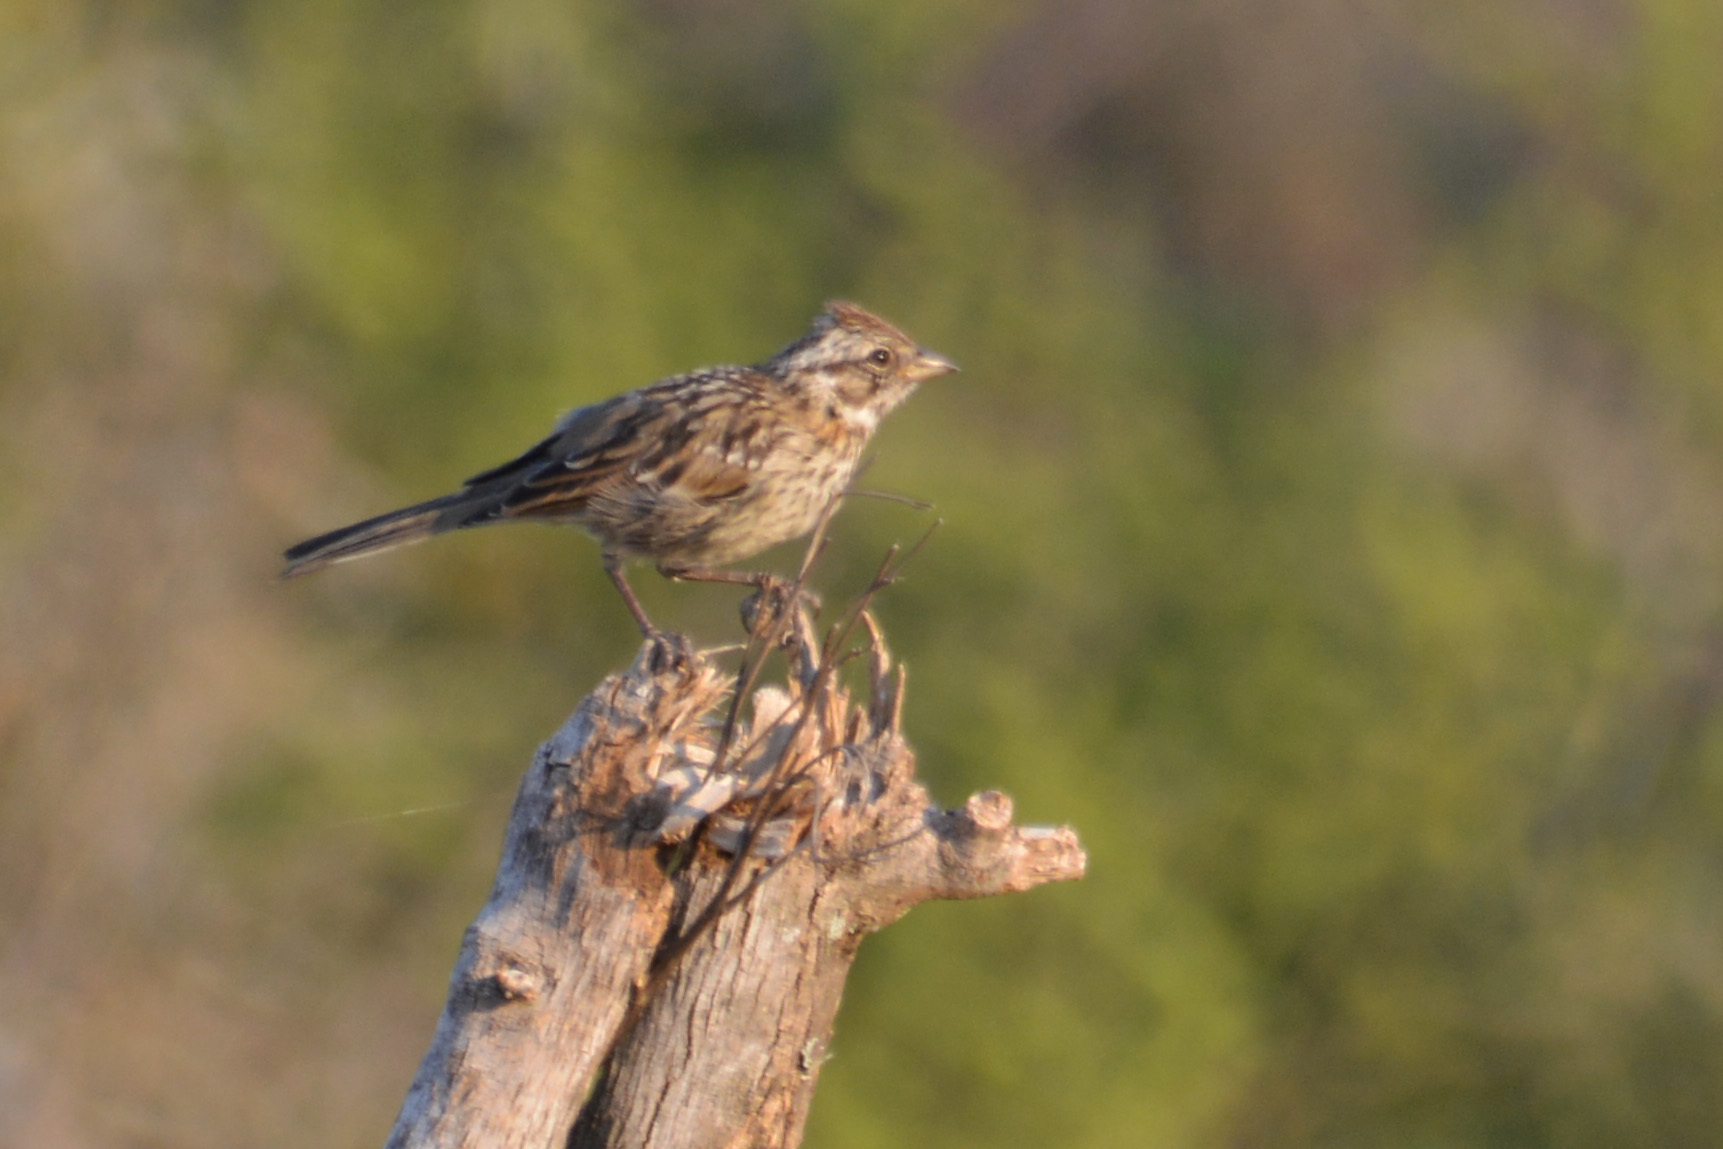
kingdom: Animalia
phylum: Chordata
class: Aves
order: Passeriformes
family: Passerellidae
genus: Zonotrichia
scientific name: Zonotrichia capensis
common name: Rufous-collared sparrow
